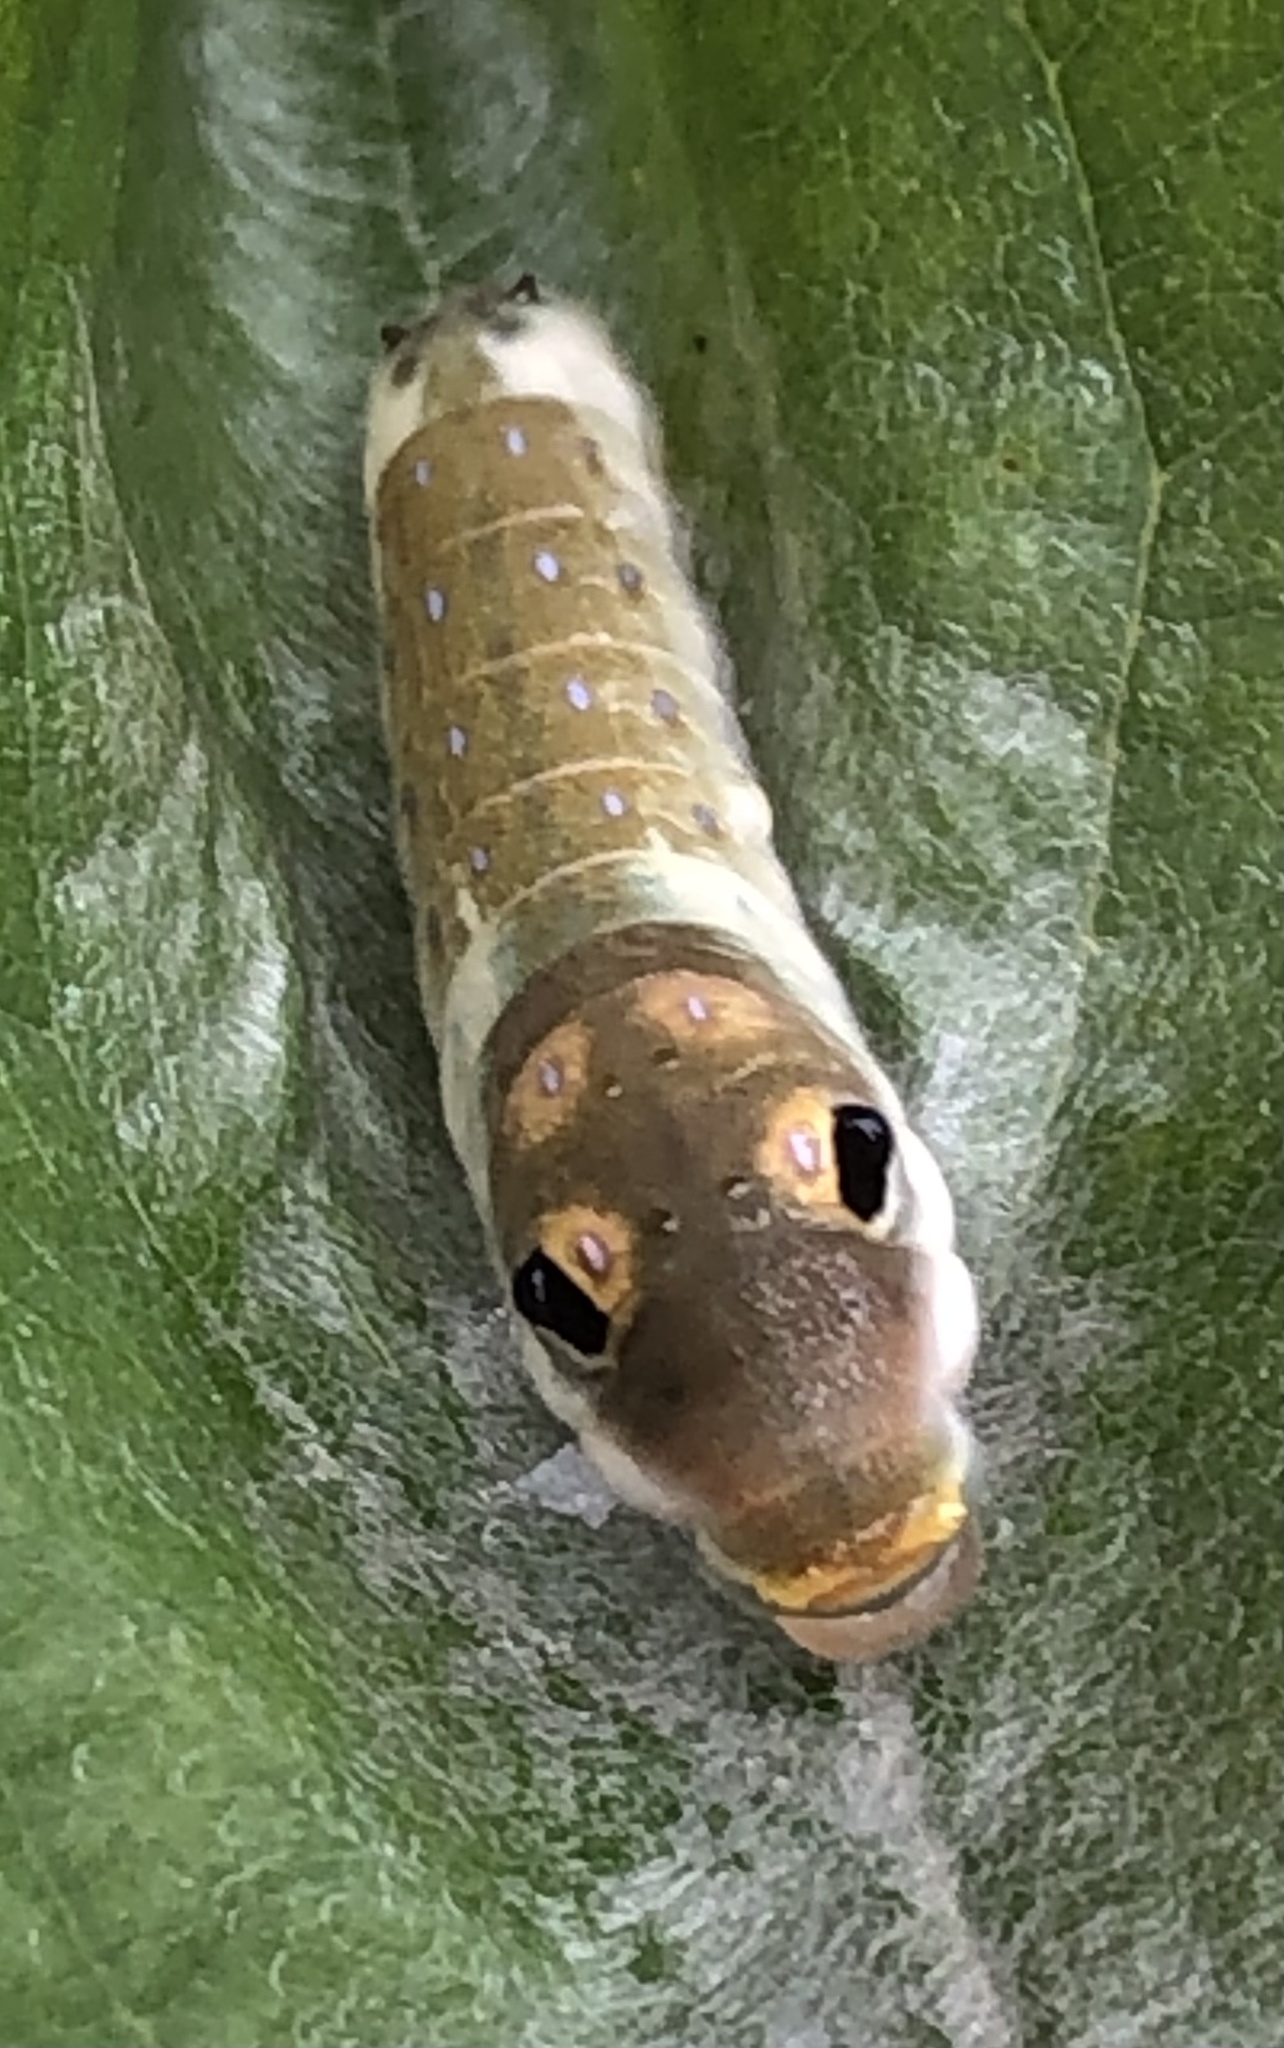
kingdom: Animalia
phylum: Arthropoda
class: Insecta
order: Lepidoptera
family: Papilionidae
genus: Papilio
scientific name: Papilio troilus
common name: Spicebush swallowtail
